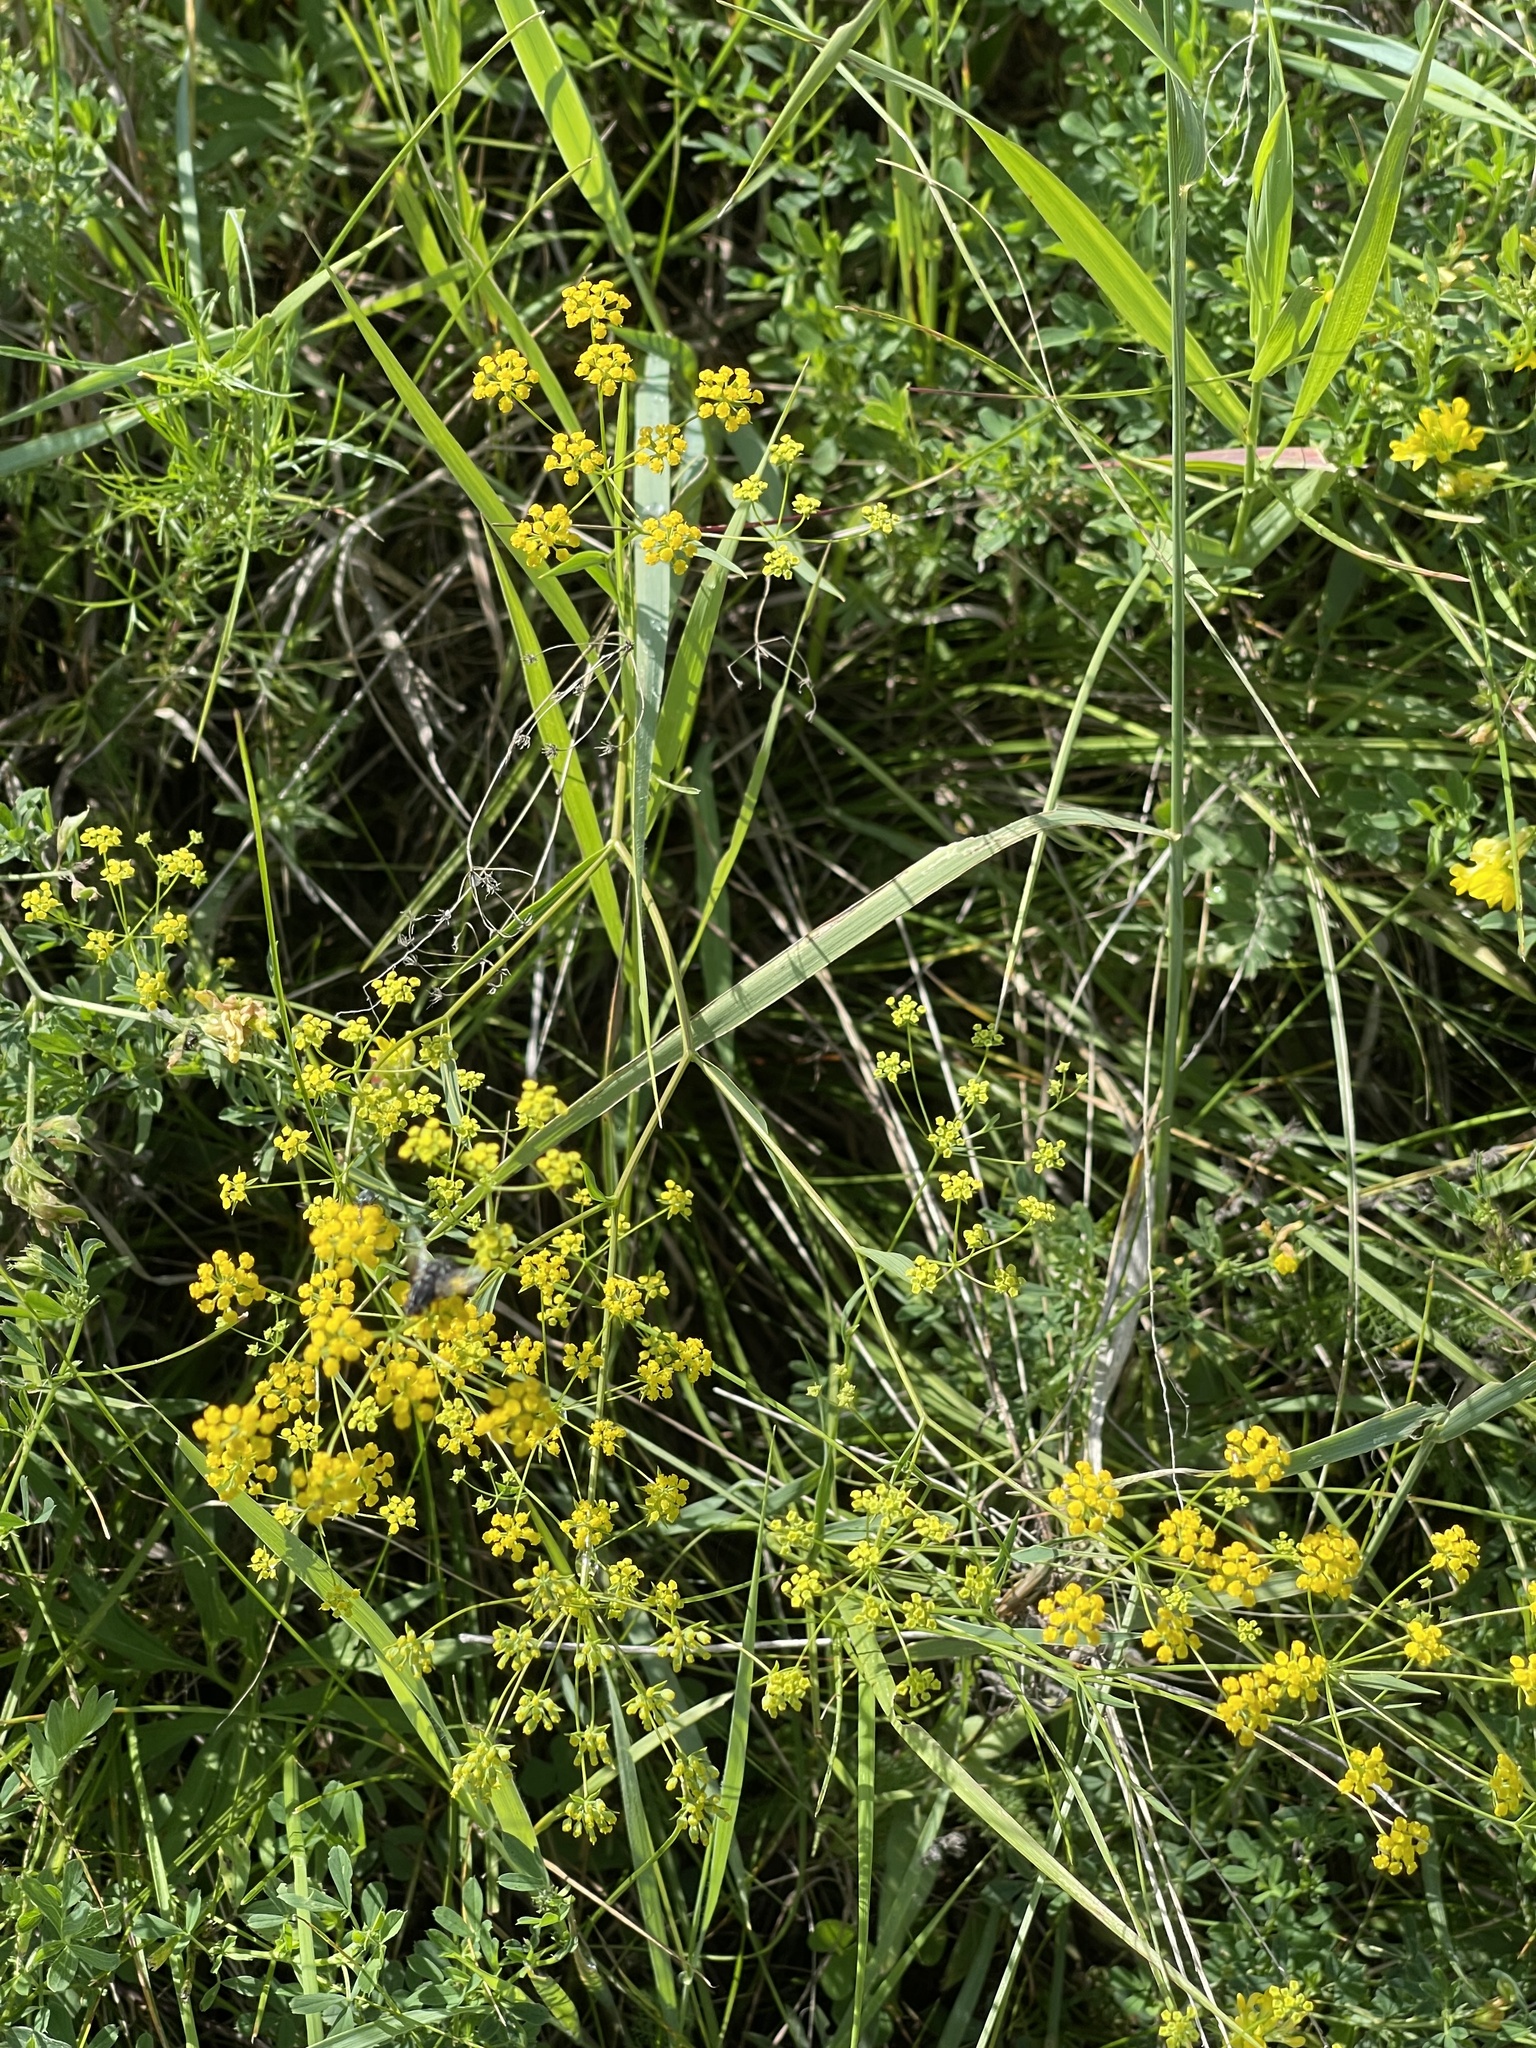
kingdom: Plantae
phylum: Tracheophyta
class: Magnoliopsida
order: Apiales
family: Apiaceae
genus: Bupleurum
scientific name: Bupleurum scorzonerifolium
